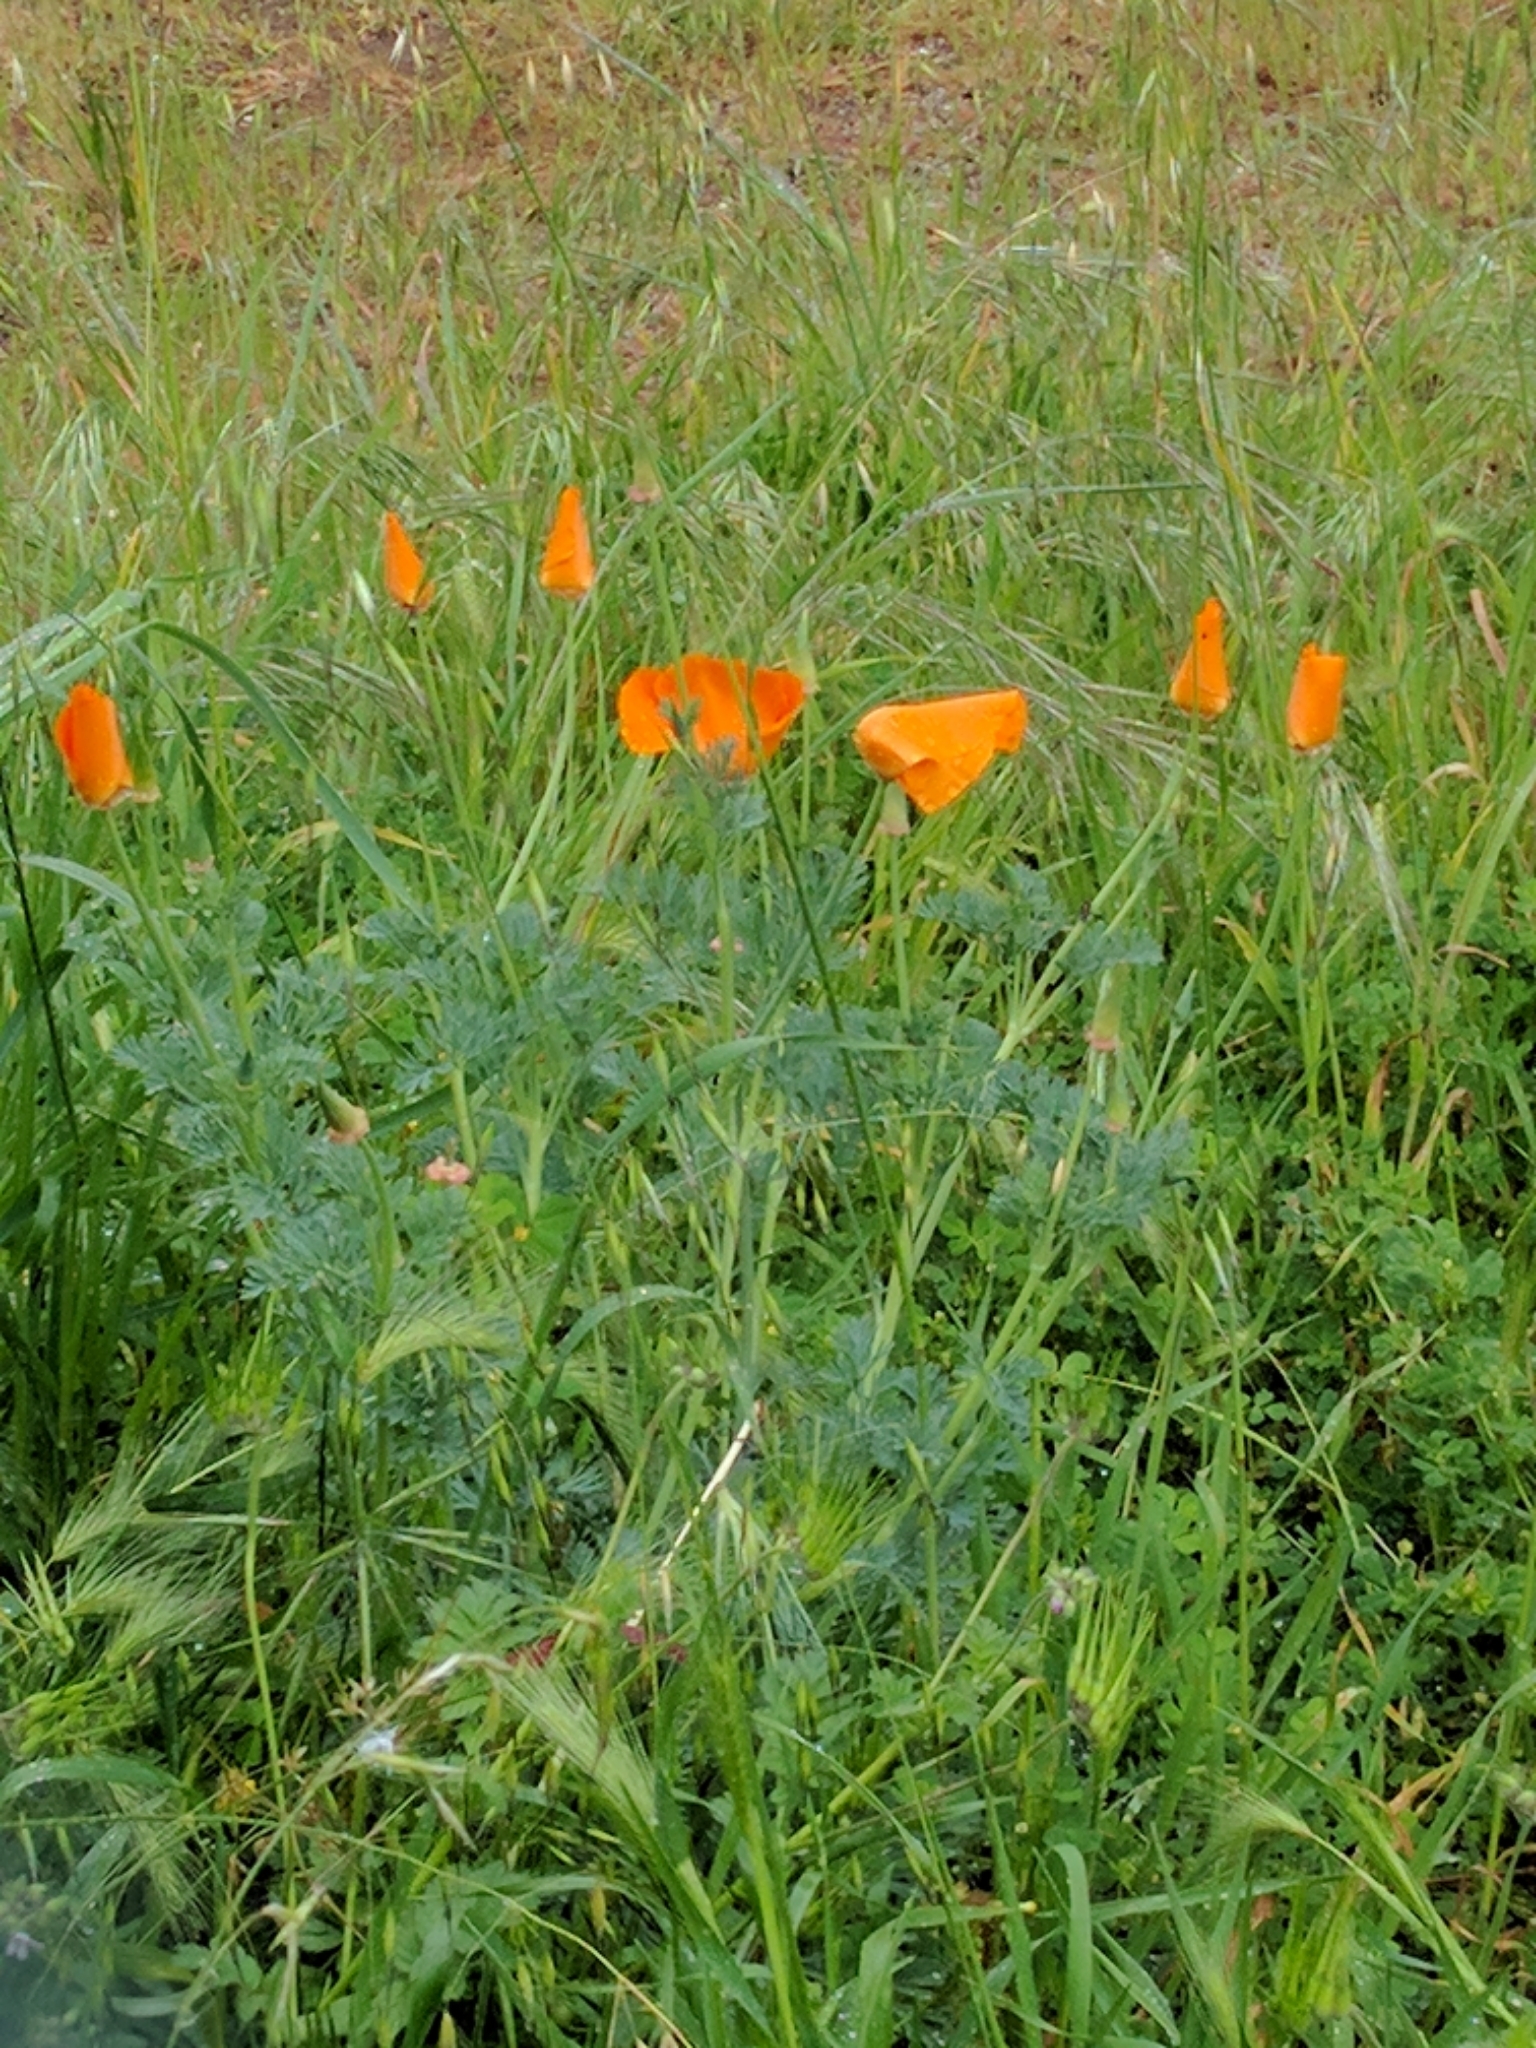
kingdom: Plantae
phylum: Tracheophyta
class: Magnoliopsida
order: Ranunculales
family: Papaveraceae
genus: Eschscholzia
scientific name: Eschscholzia californica
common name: California poppy
